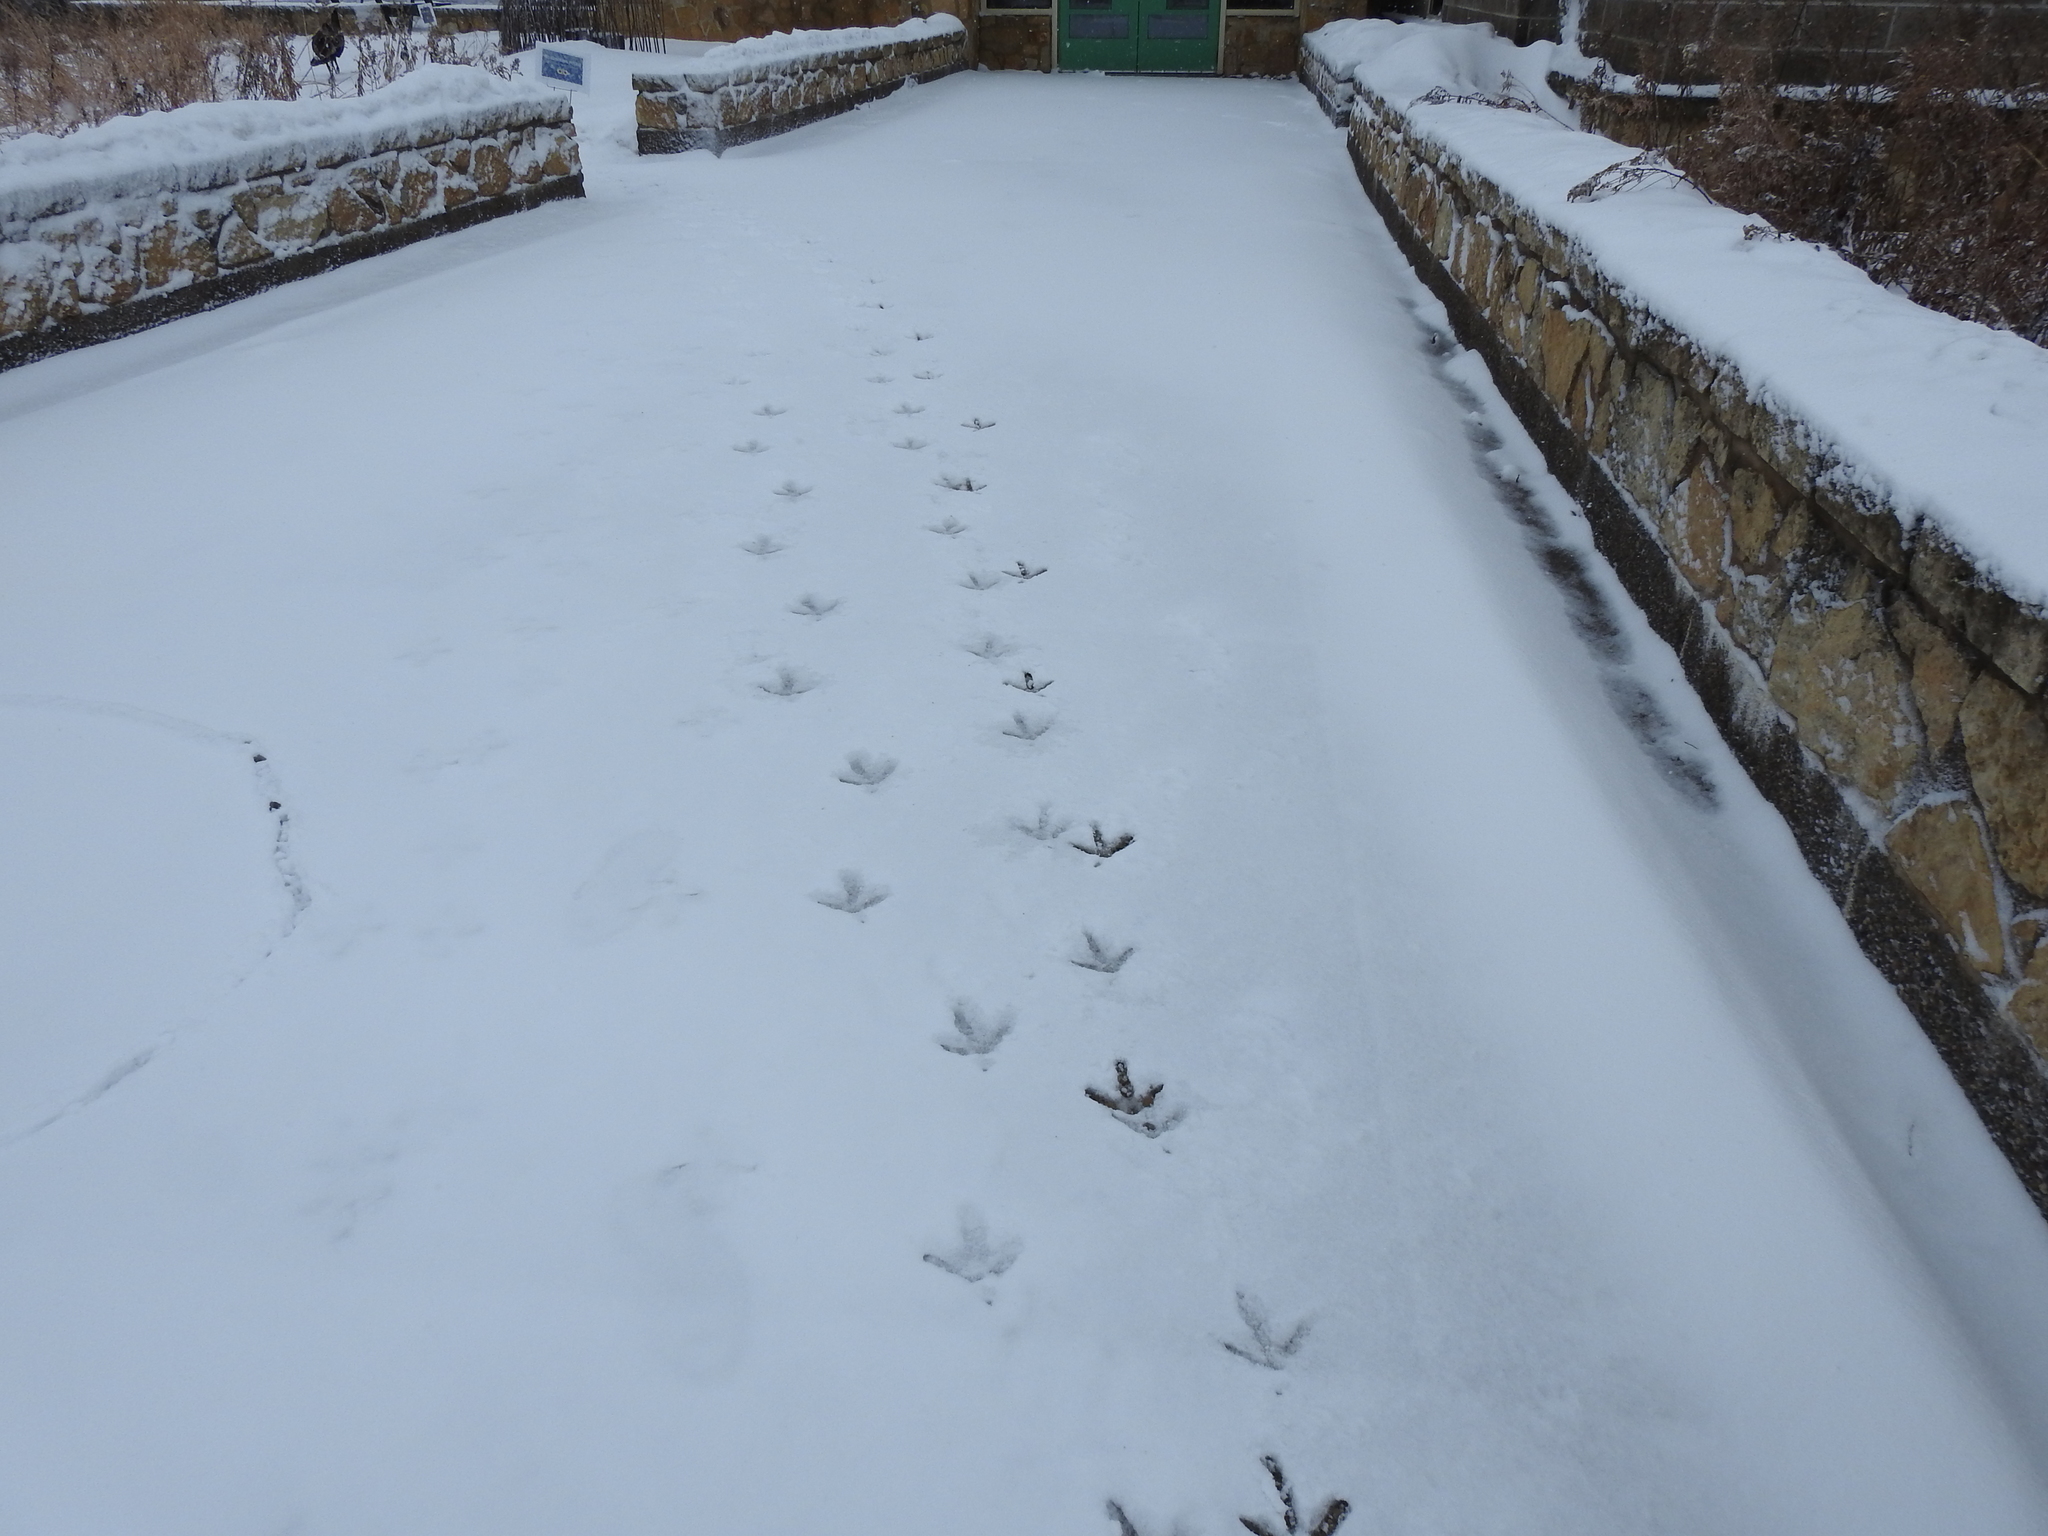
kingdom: Animalia
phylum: Chordata
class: Aves
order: Galliformes
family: Phasianidae
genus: Meleagris
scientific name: Meleagris gallopavo
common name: Wild turkey
